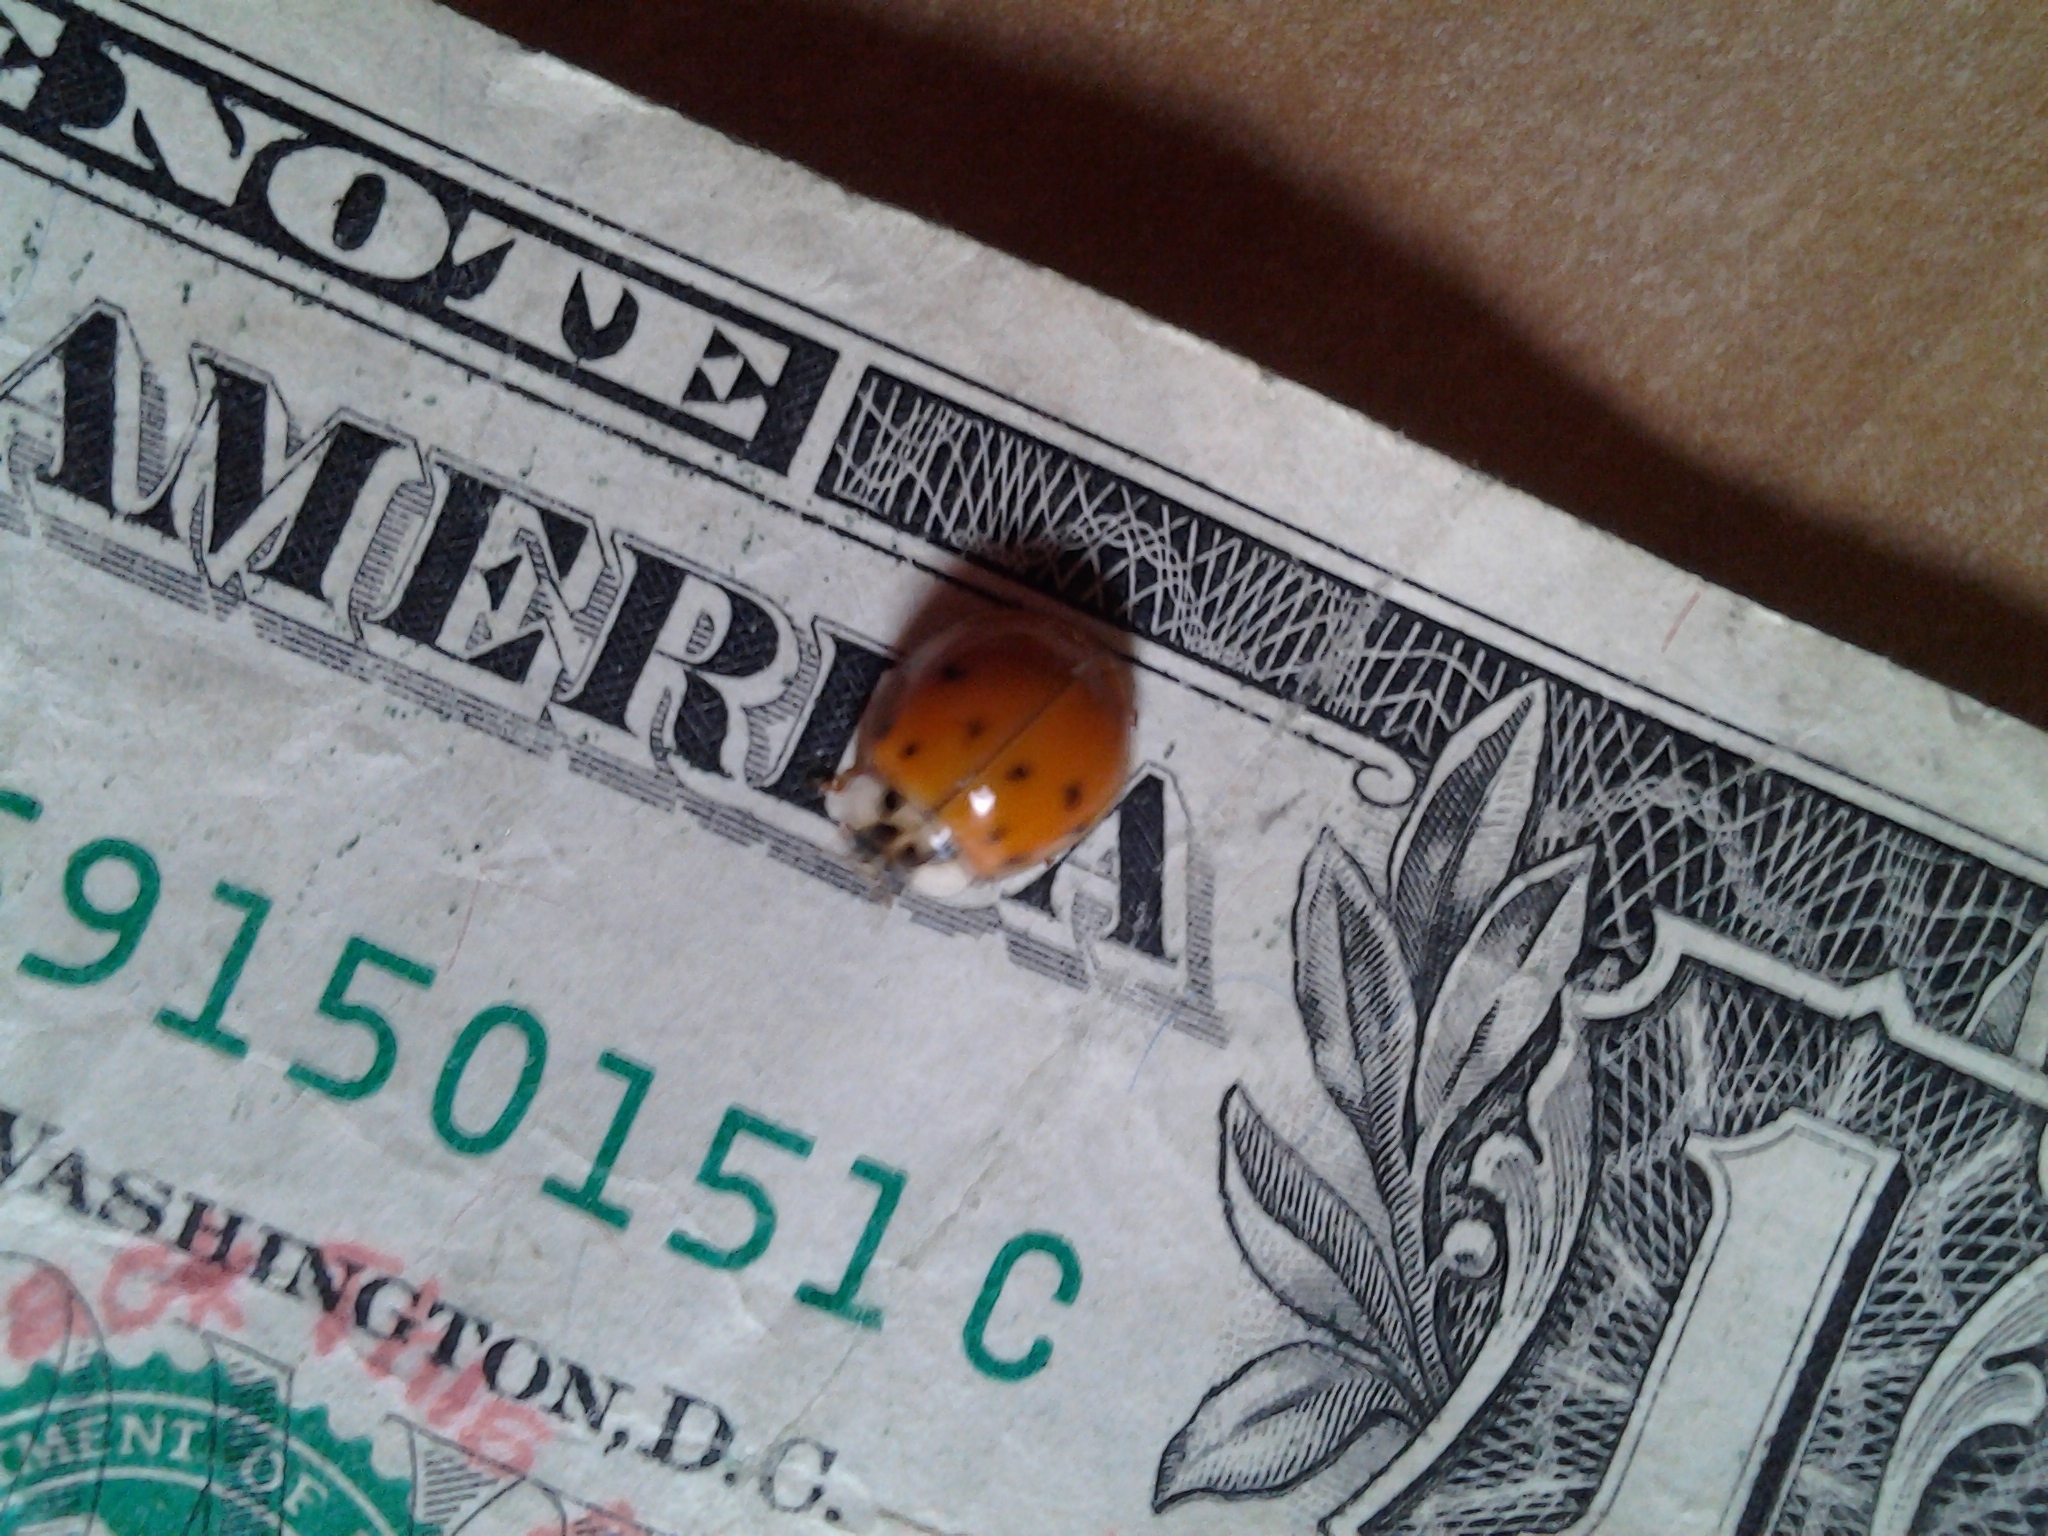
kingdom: Animalia
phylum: Arthropoda
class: Insecta
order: Coleoptera
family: Coccinellidae
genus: Harmonia
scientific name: Harmonia axyridis
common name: Harlequin ladybird
